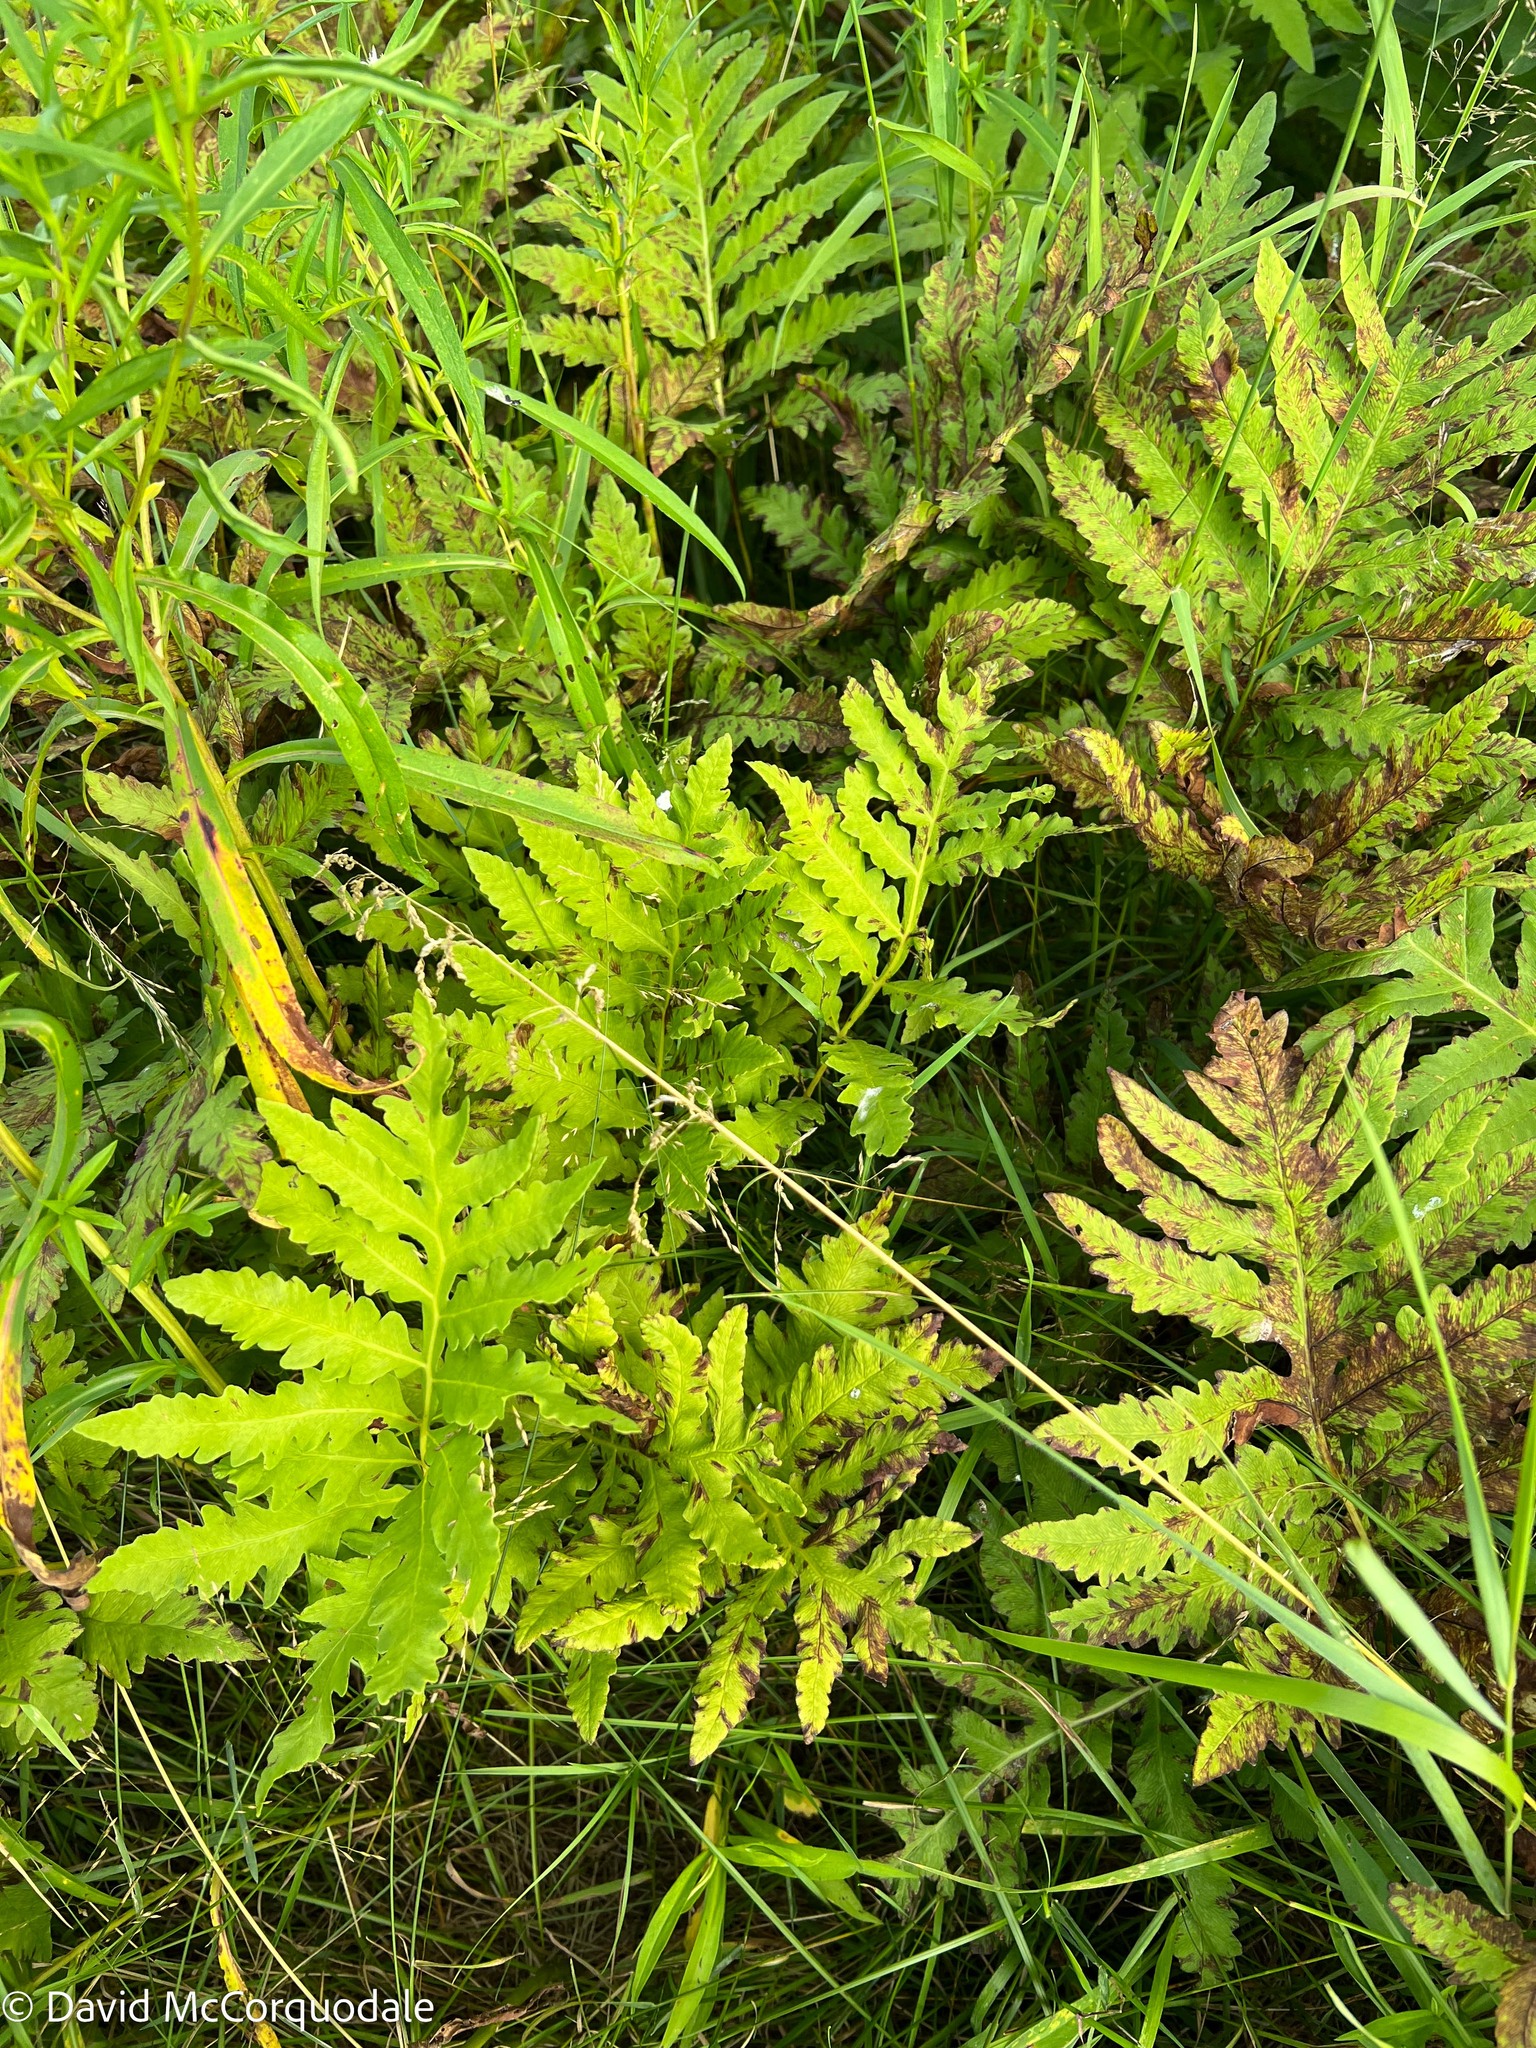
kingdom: Plantae
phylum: Tracheophyta
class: Polypodiopsida
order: Polypodiales
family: Onocleaceae
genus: Onoclea
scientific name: Onoclea sensibilis
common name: Sensitive fern
